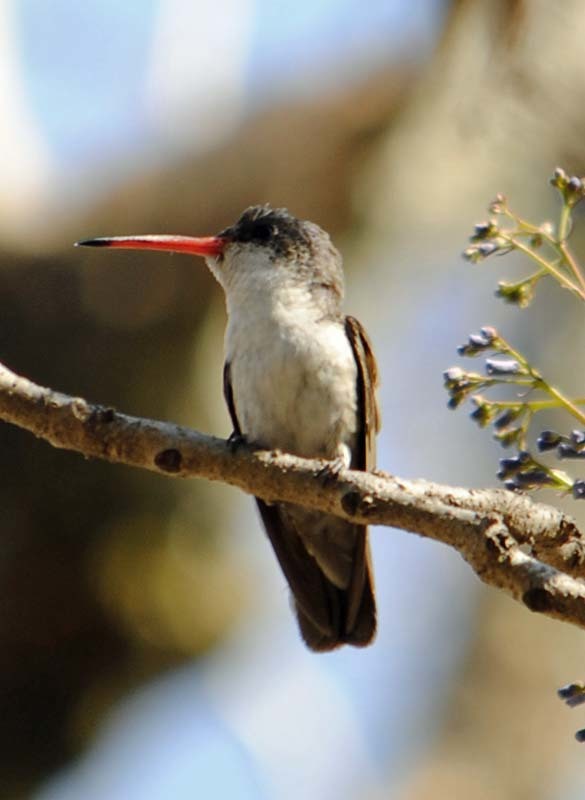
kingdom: Animalia
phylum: Chordata
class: Aves
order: Apodiformes
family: Trochilidae
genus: Leucolia
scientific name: Leucolia violiceps
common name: Violet-crowned hummingbird
